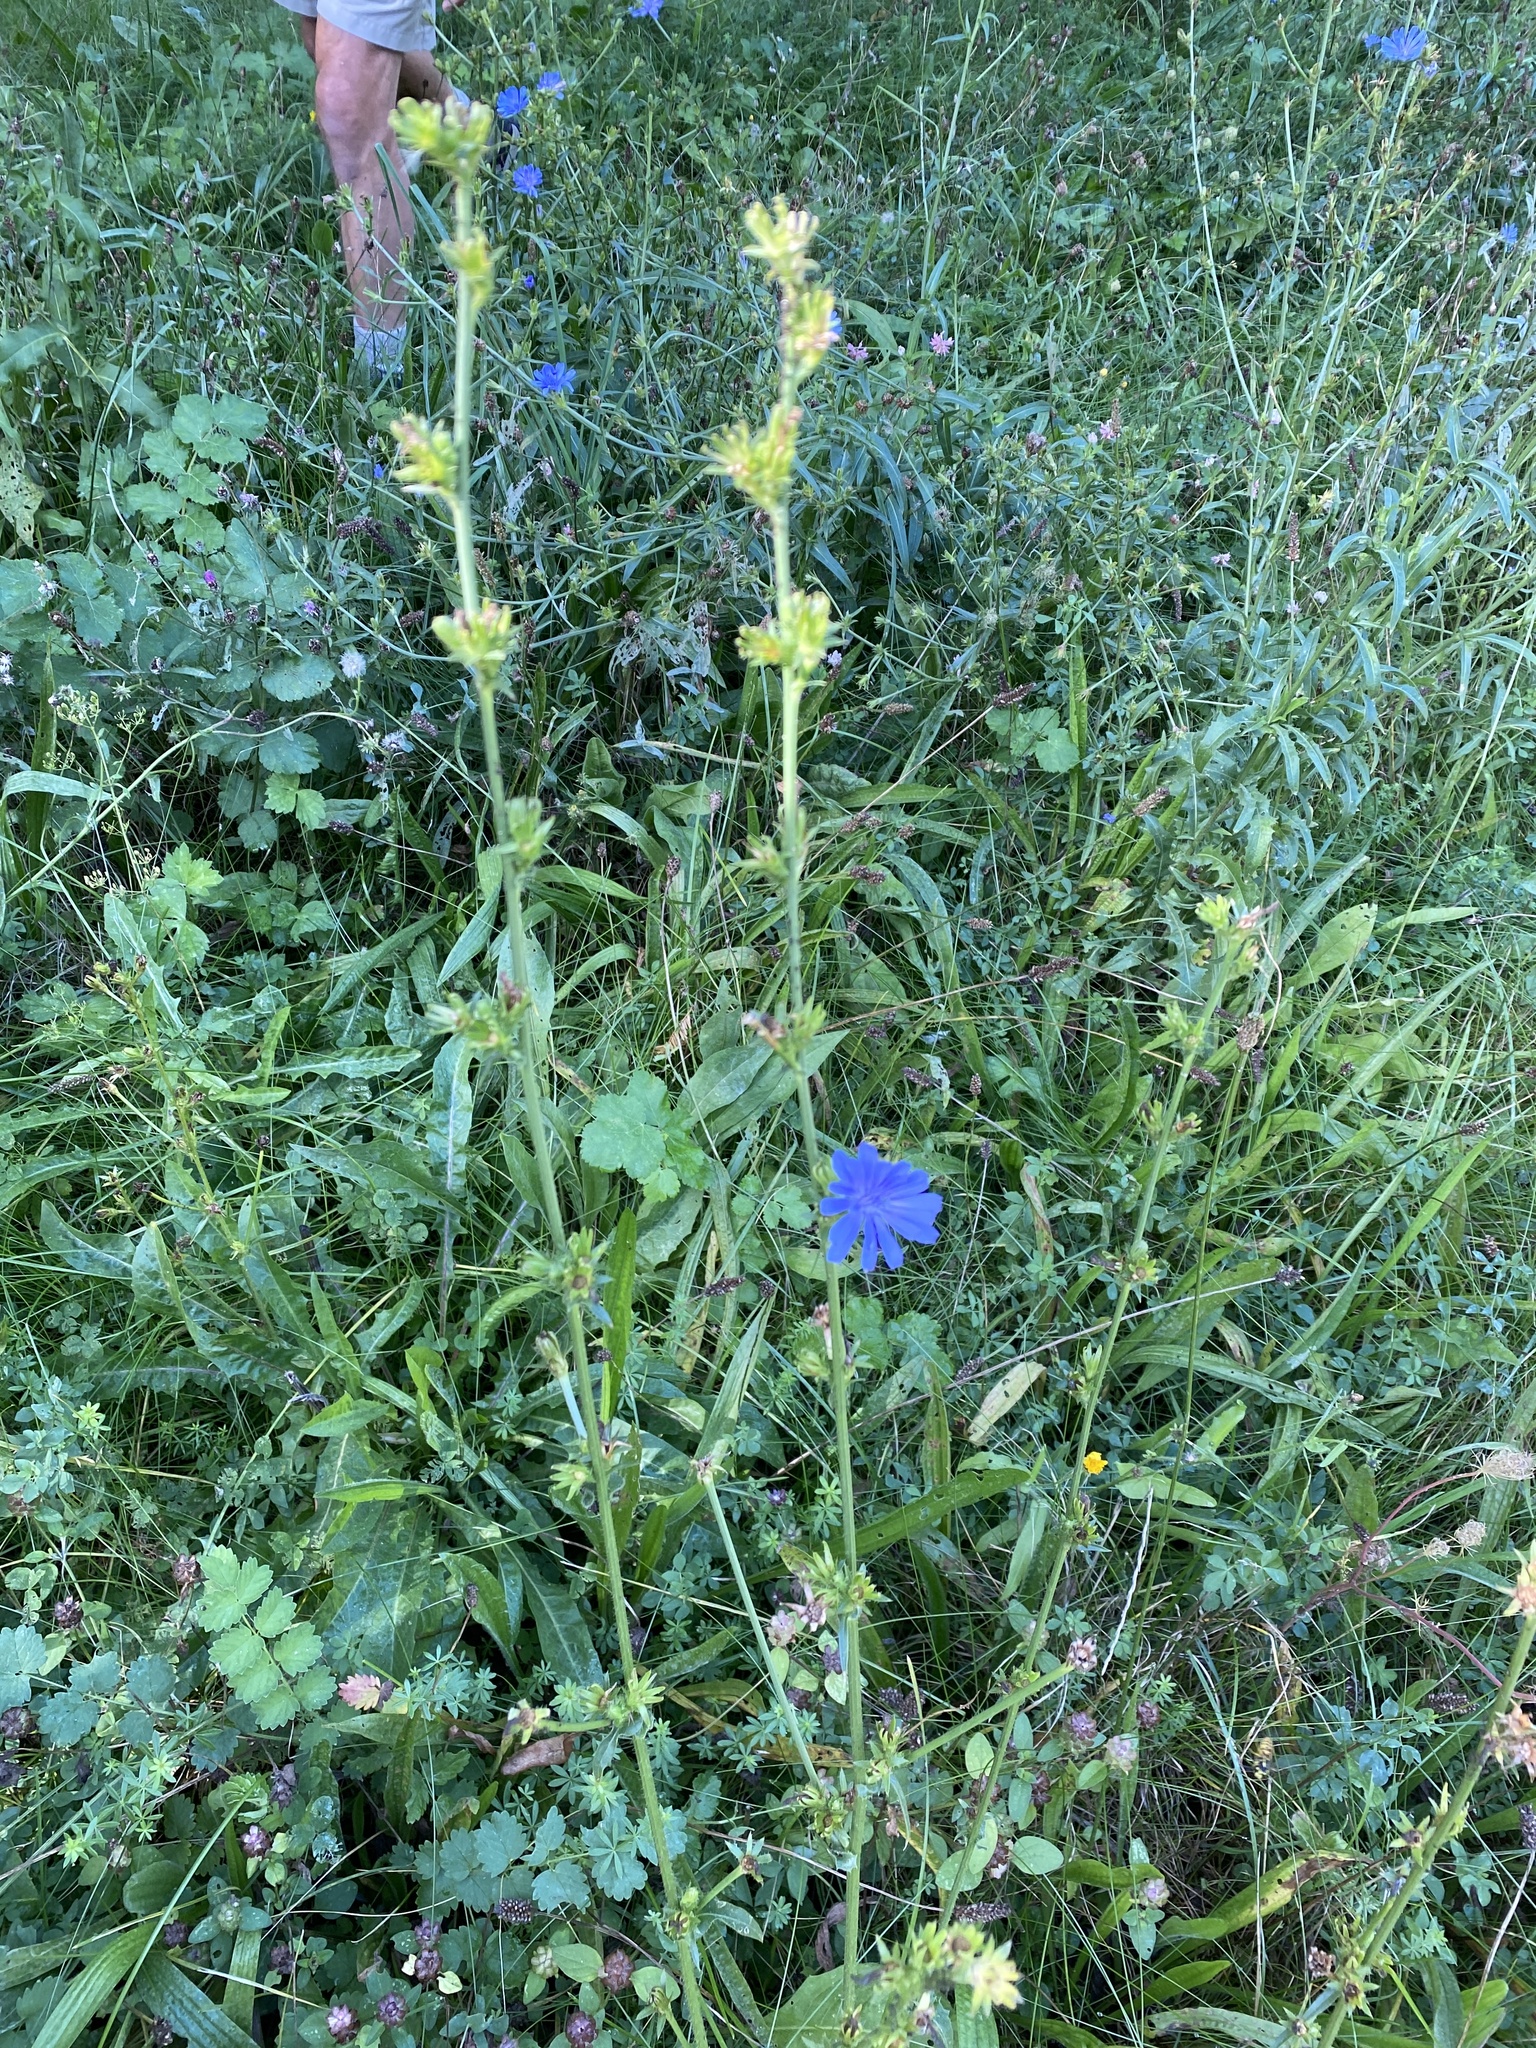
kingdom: Plantae
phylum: Tracheophyta
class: Magnoliopsida
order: Asterales
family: Asteraceae
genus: Cichorium
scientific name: Cichorium intybus
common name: Chicory
